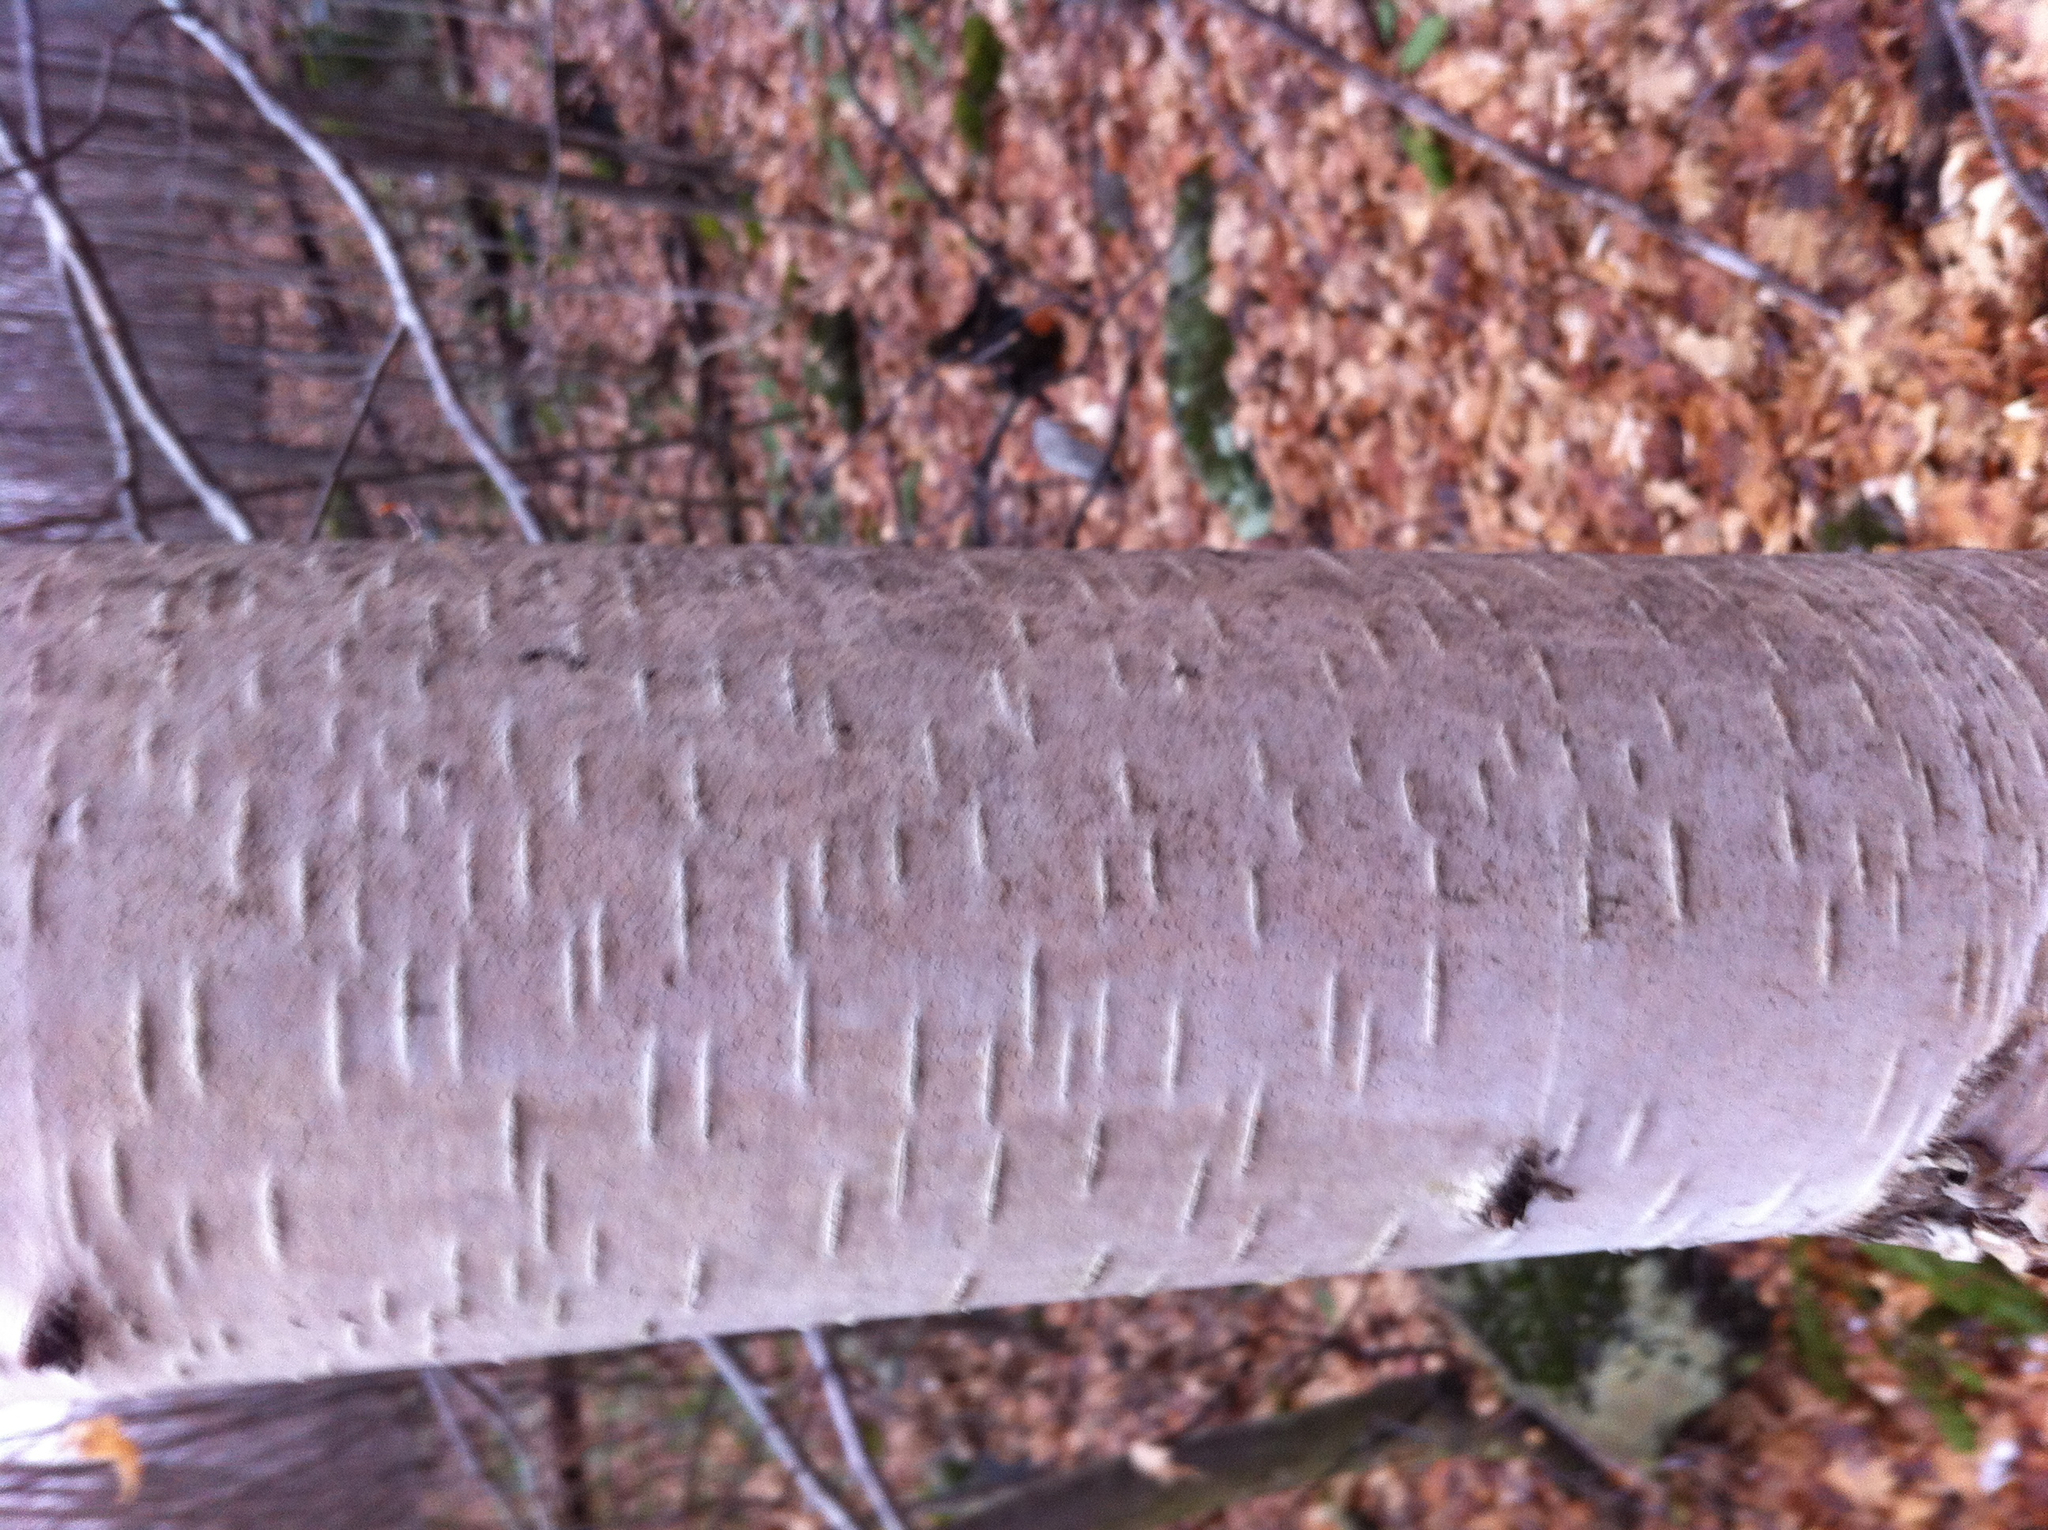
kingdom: Plantae
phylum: Tracheophyta
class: Magnoliopsida
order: Fagales
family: Betulaceae
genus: Betula
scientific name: Betula papyrifera
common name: Paper birch
